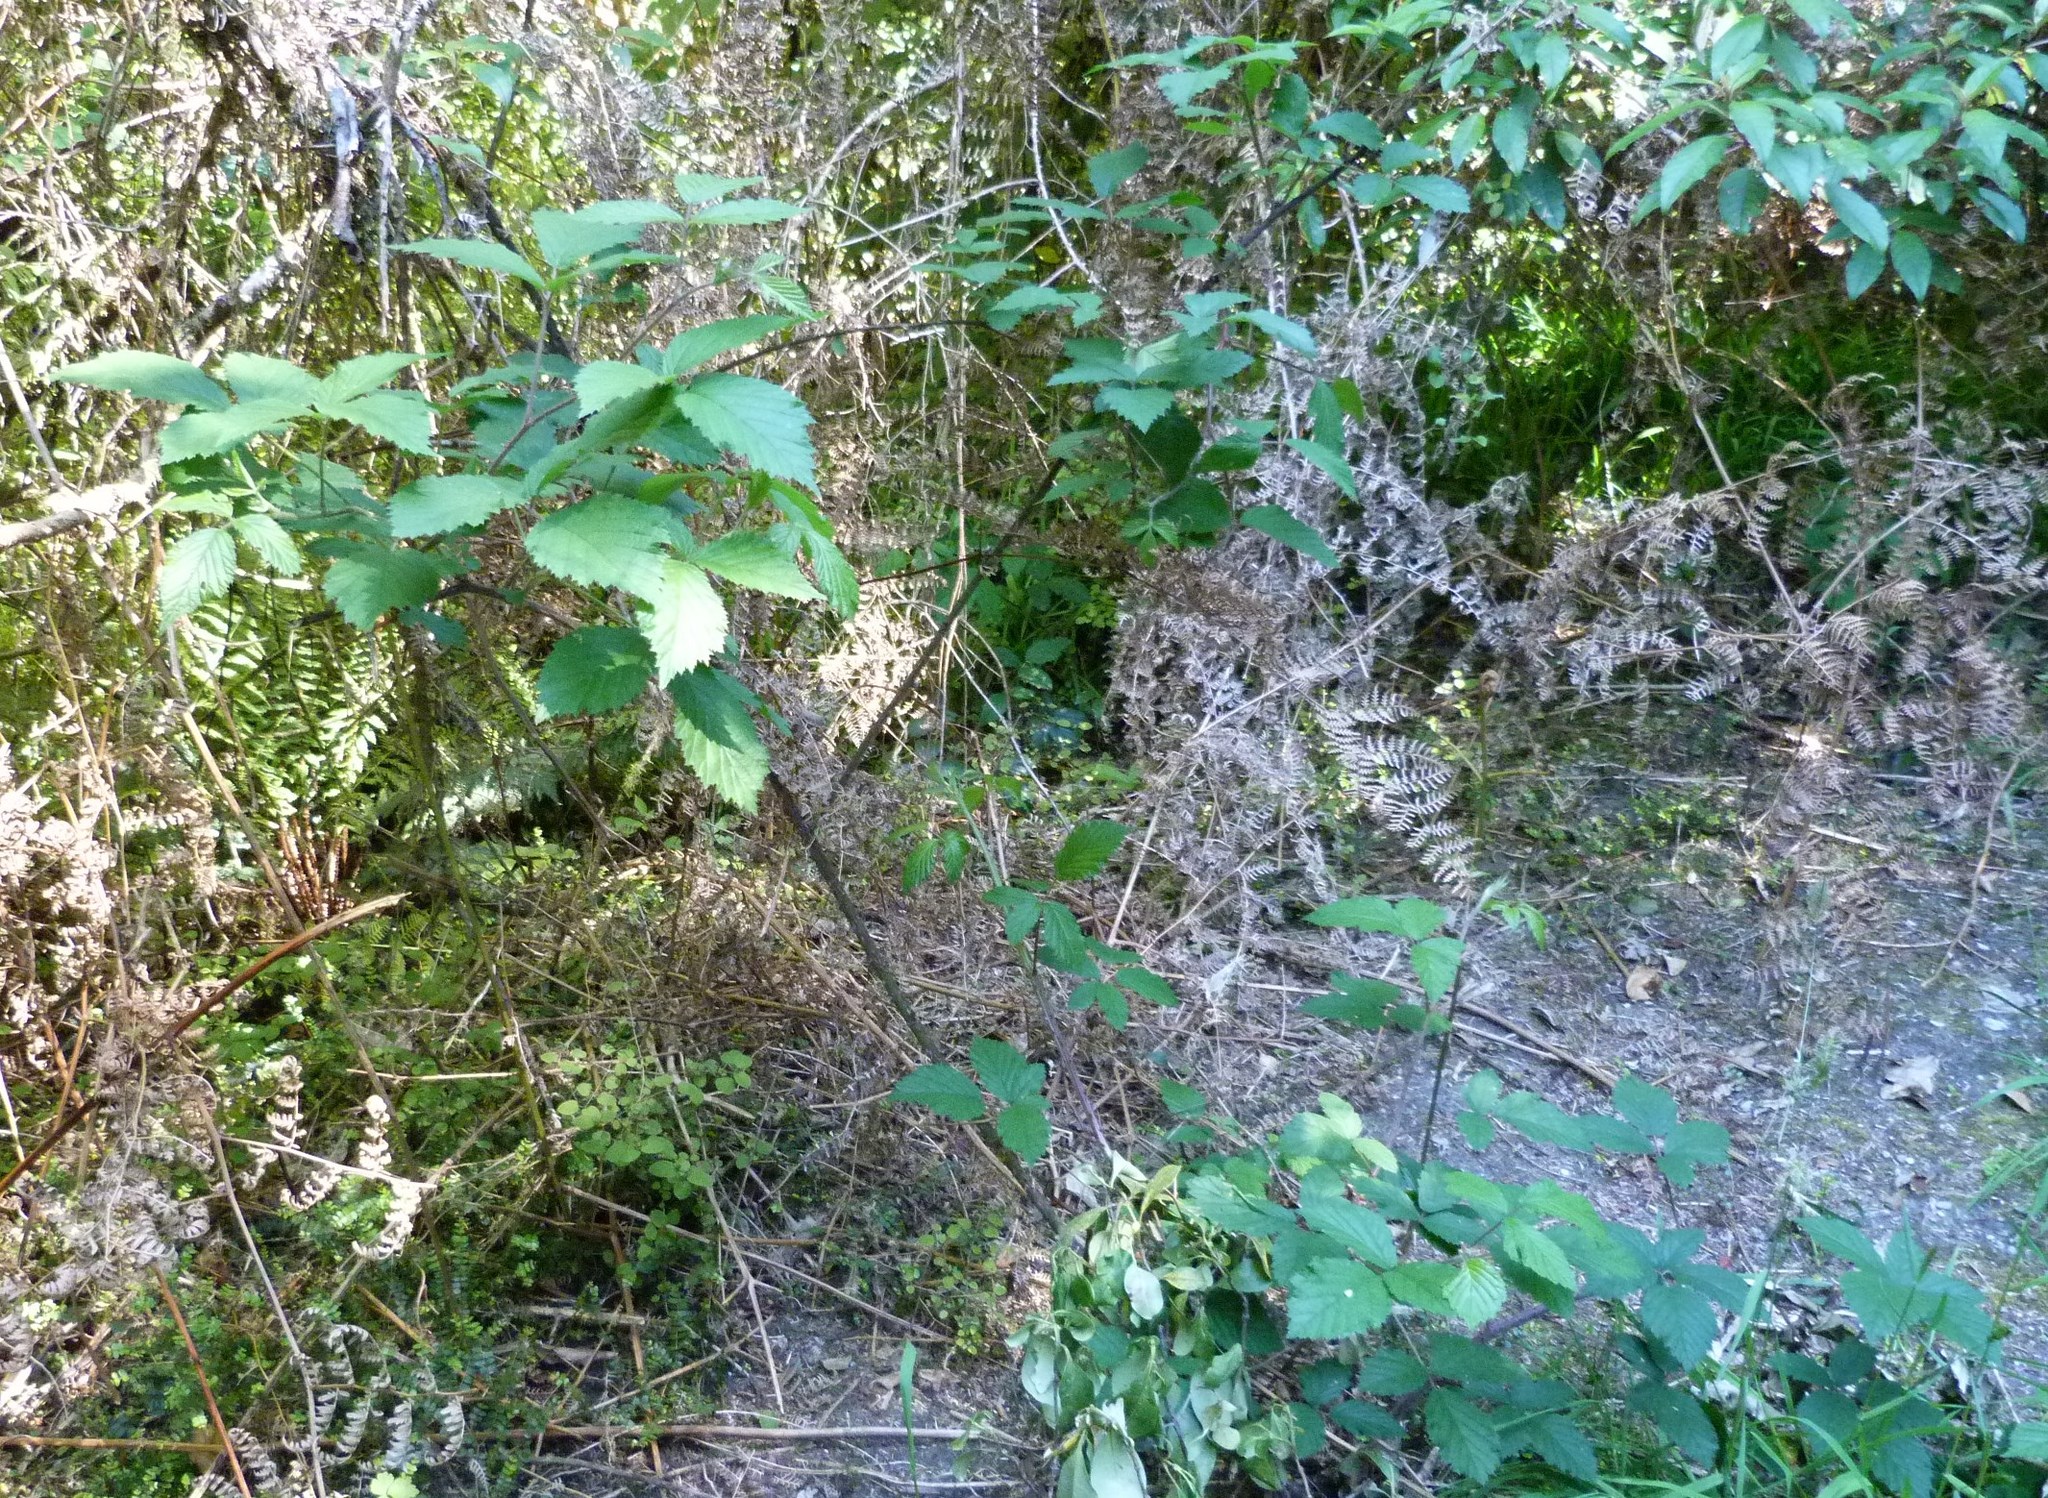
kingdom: Plantae
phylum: Tracheophyta
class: Magnoliopsida
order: Rosales
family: Rosaceae
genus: Rubus
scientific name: Rubus
